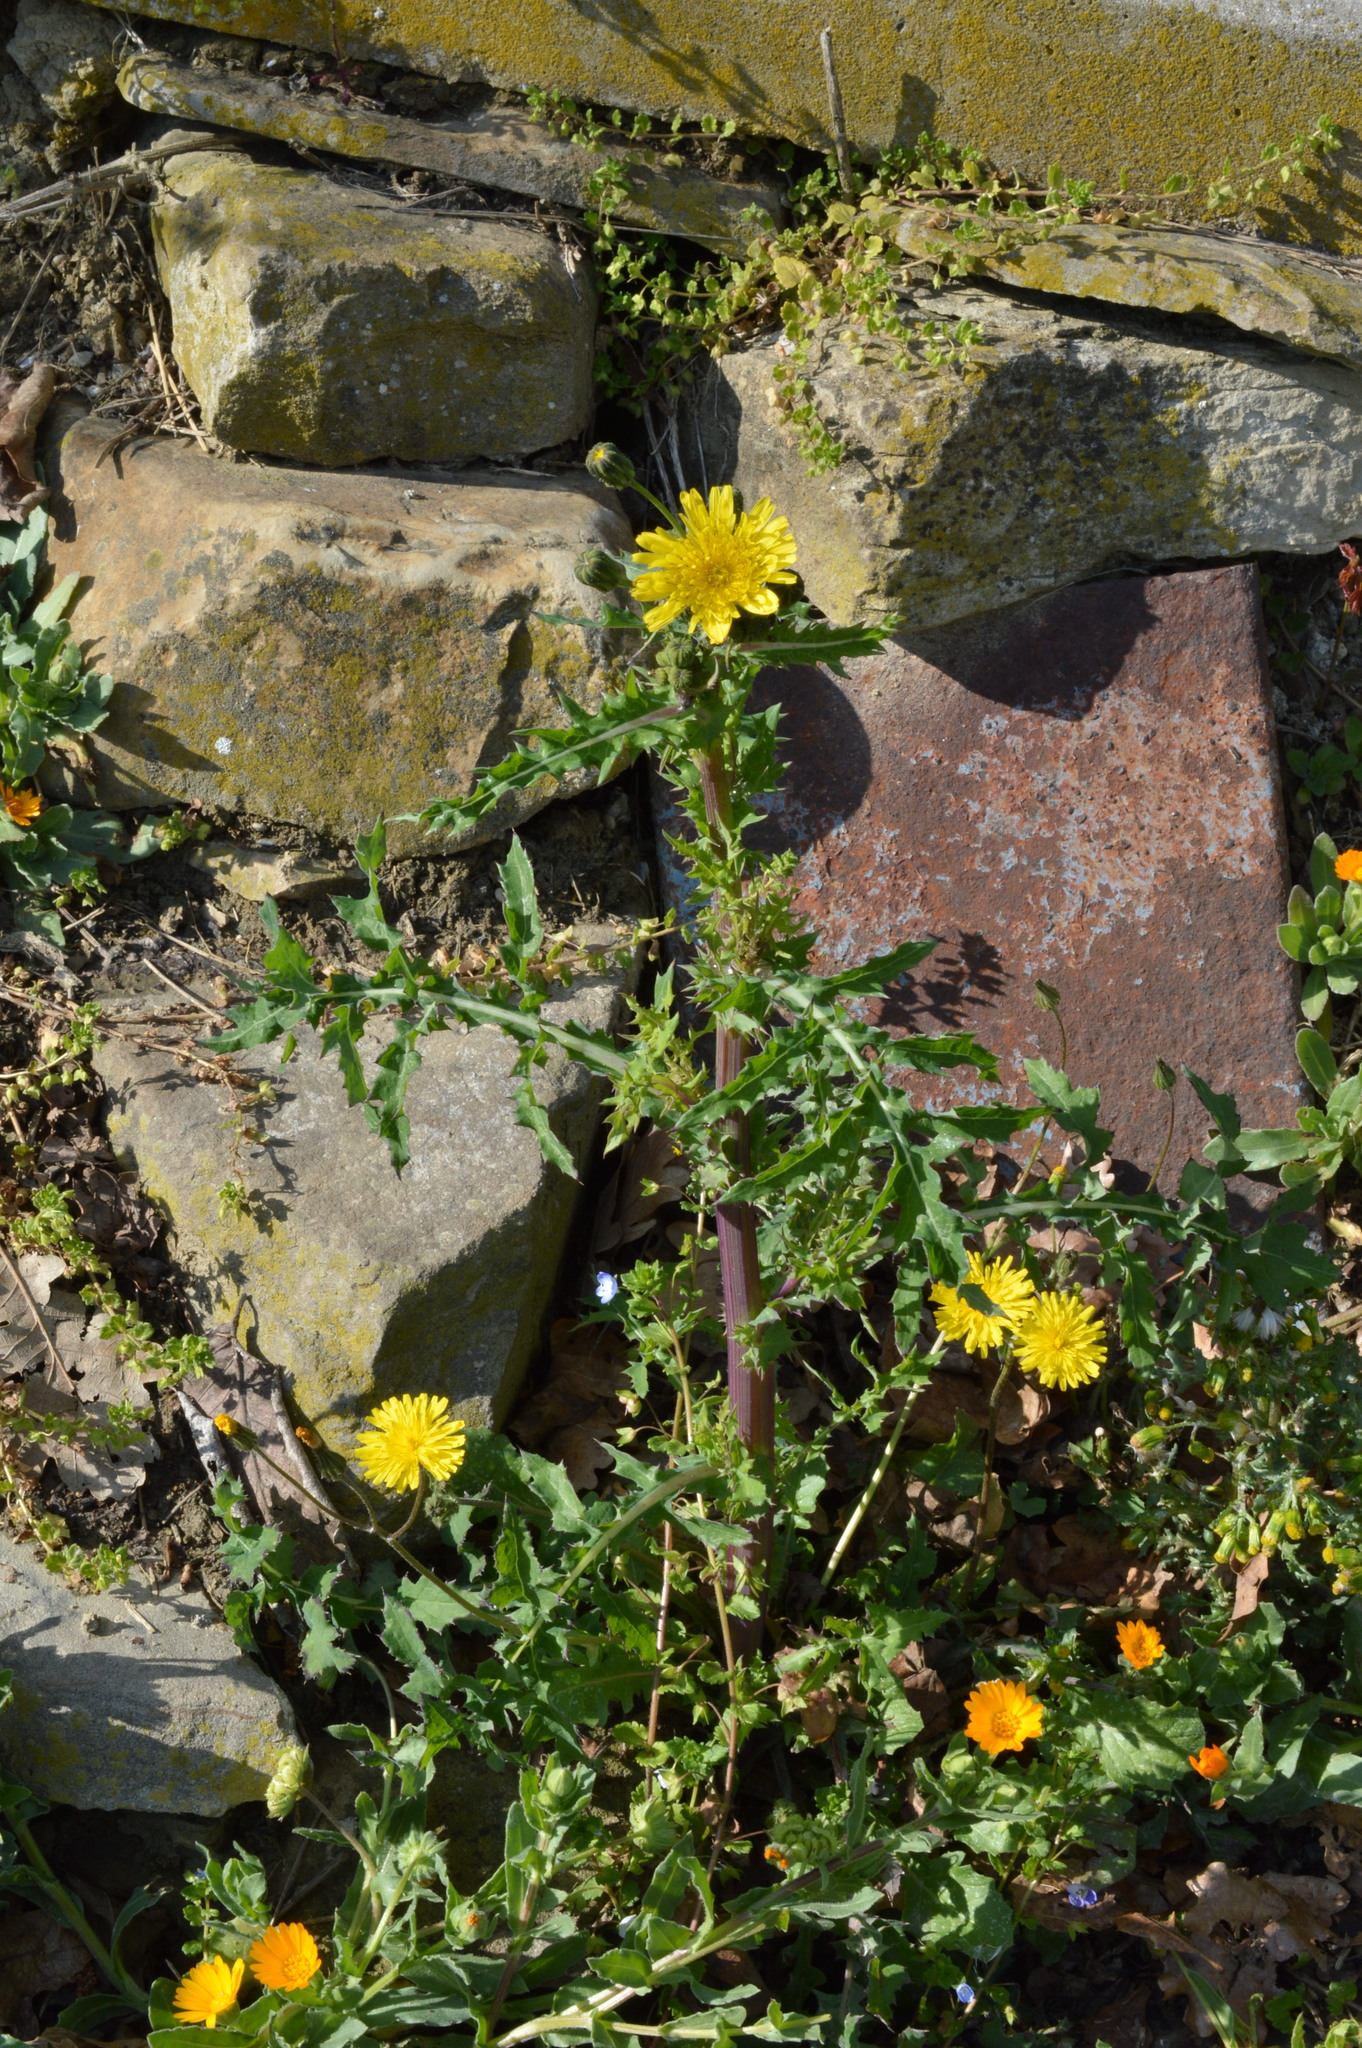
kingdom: Plantae
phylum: Tracheophyta
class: Magnoliopsida
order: Asterales
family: Asteraceae
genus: Sonchus
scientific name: Sonchus asper
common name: Prickly sow-thistle
